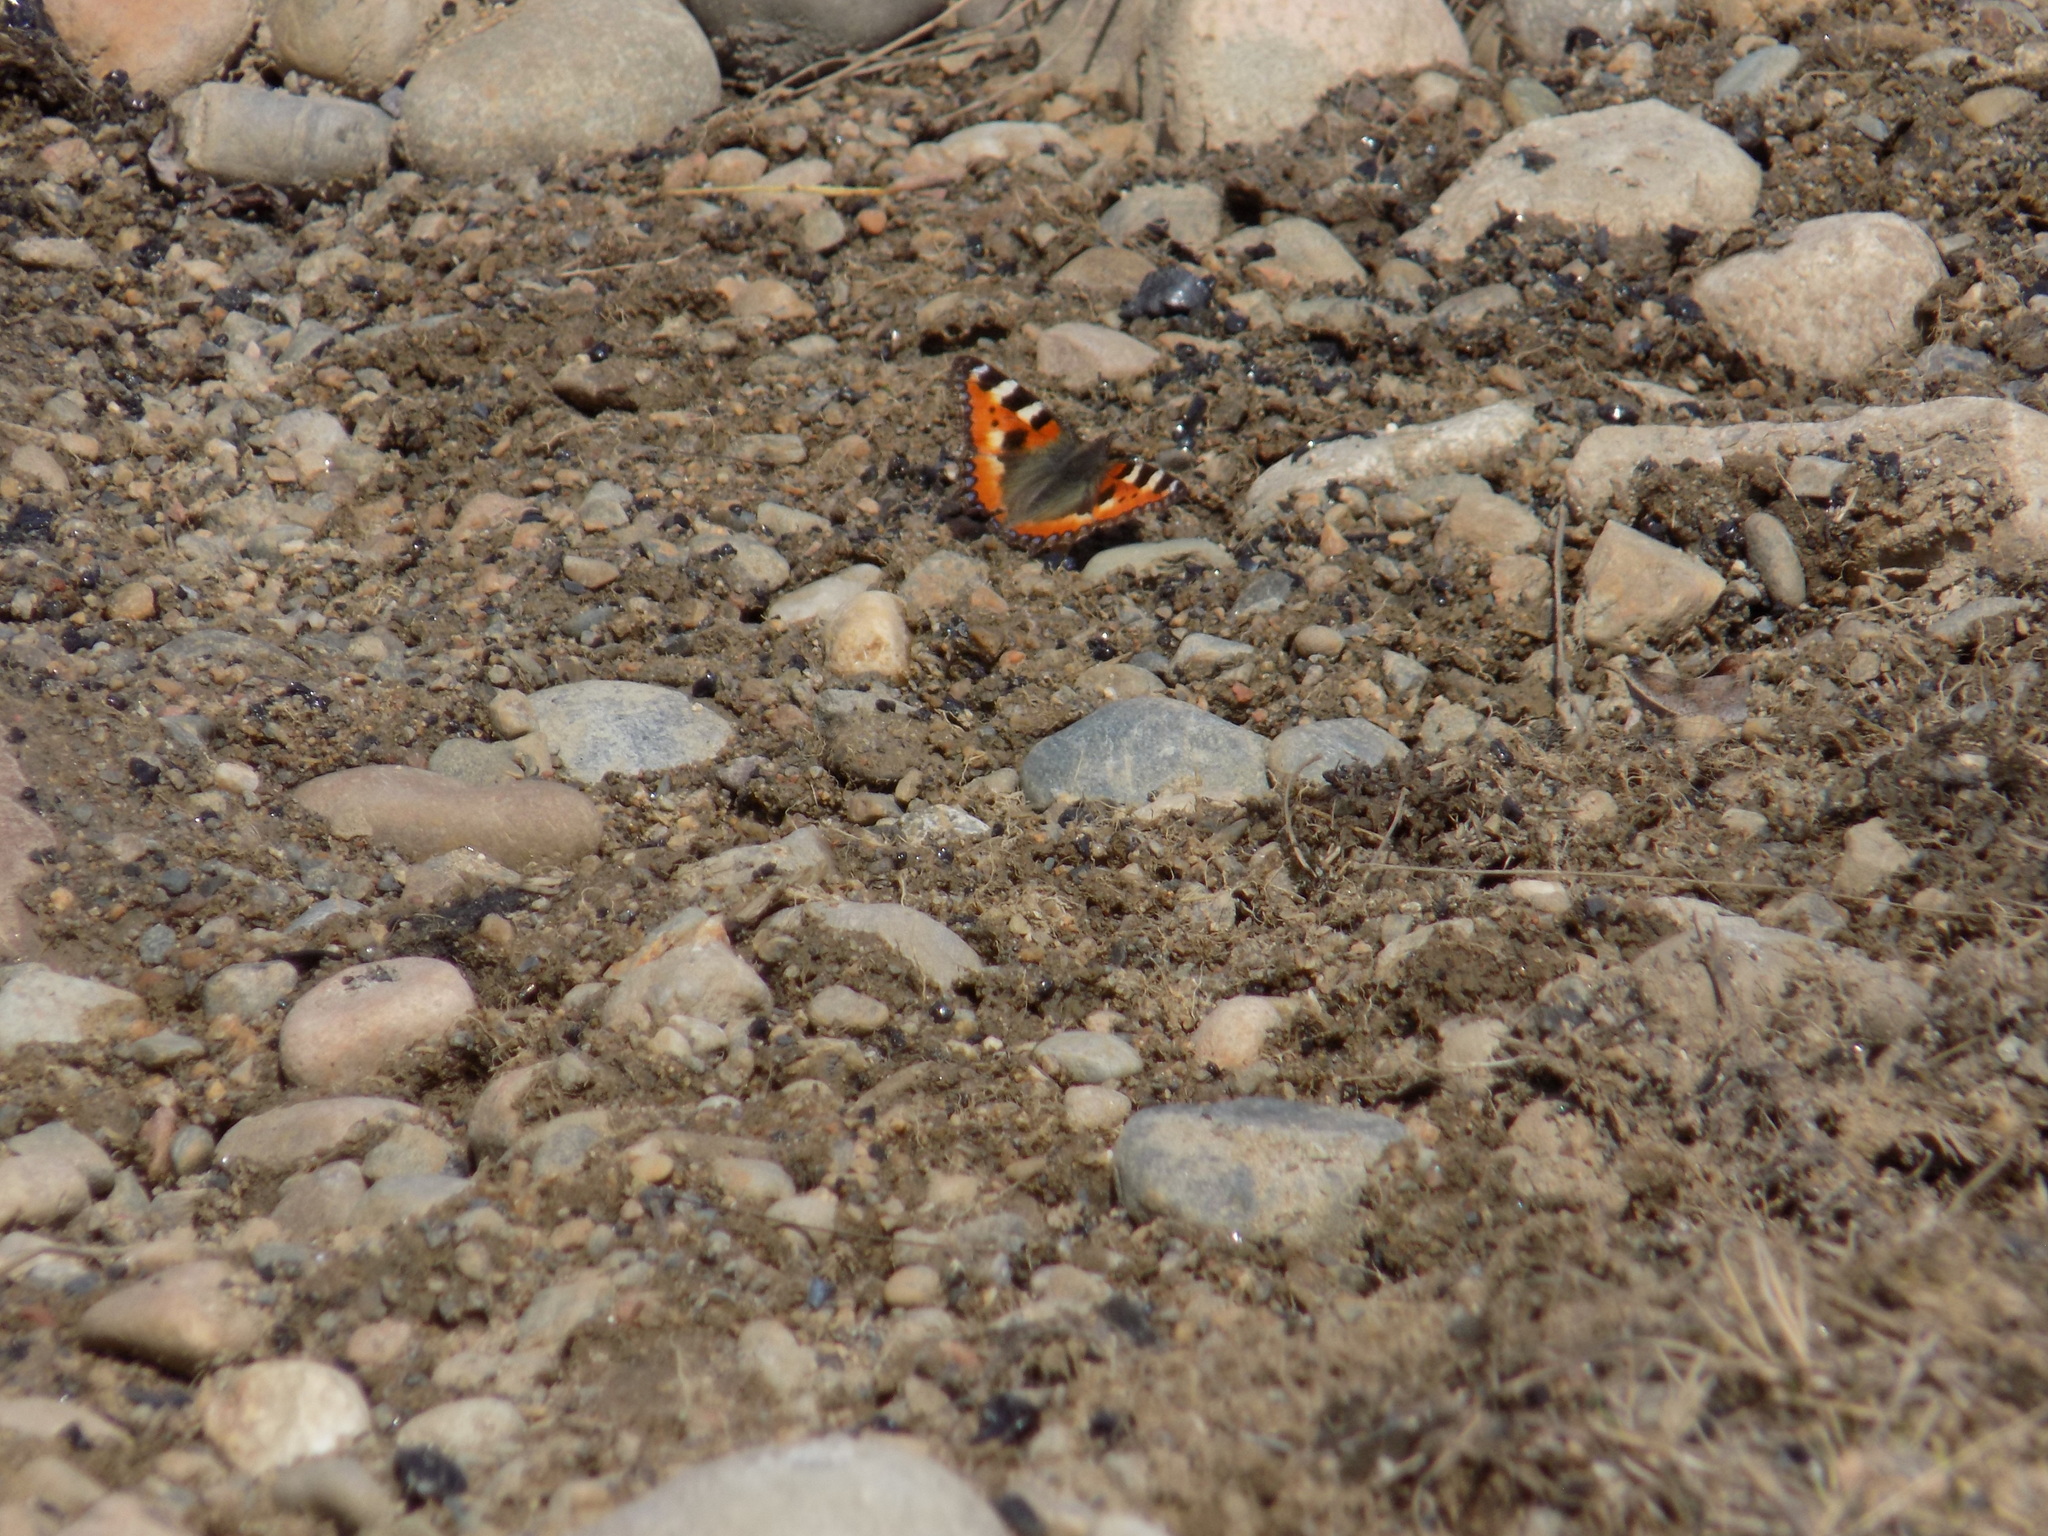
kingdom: Animalia
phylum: Arthropoda
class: Insecta
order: Lepidoptera
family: Nymphalidae
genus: Aglais
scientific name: Aglais urticae
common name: Small tortoiseshell
